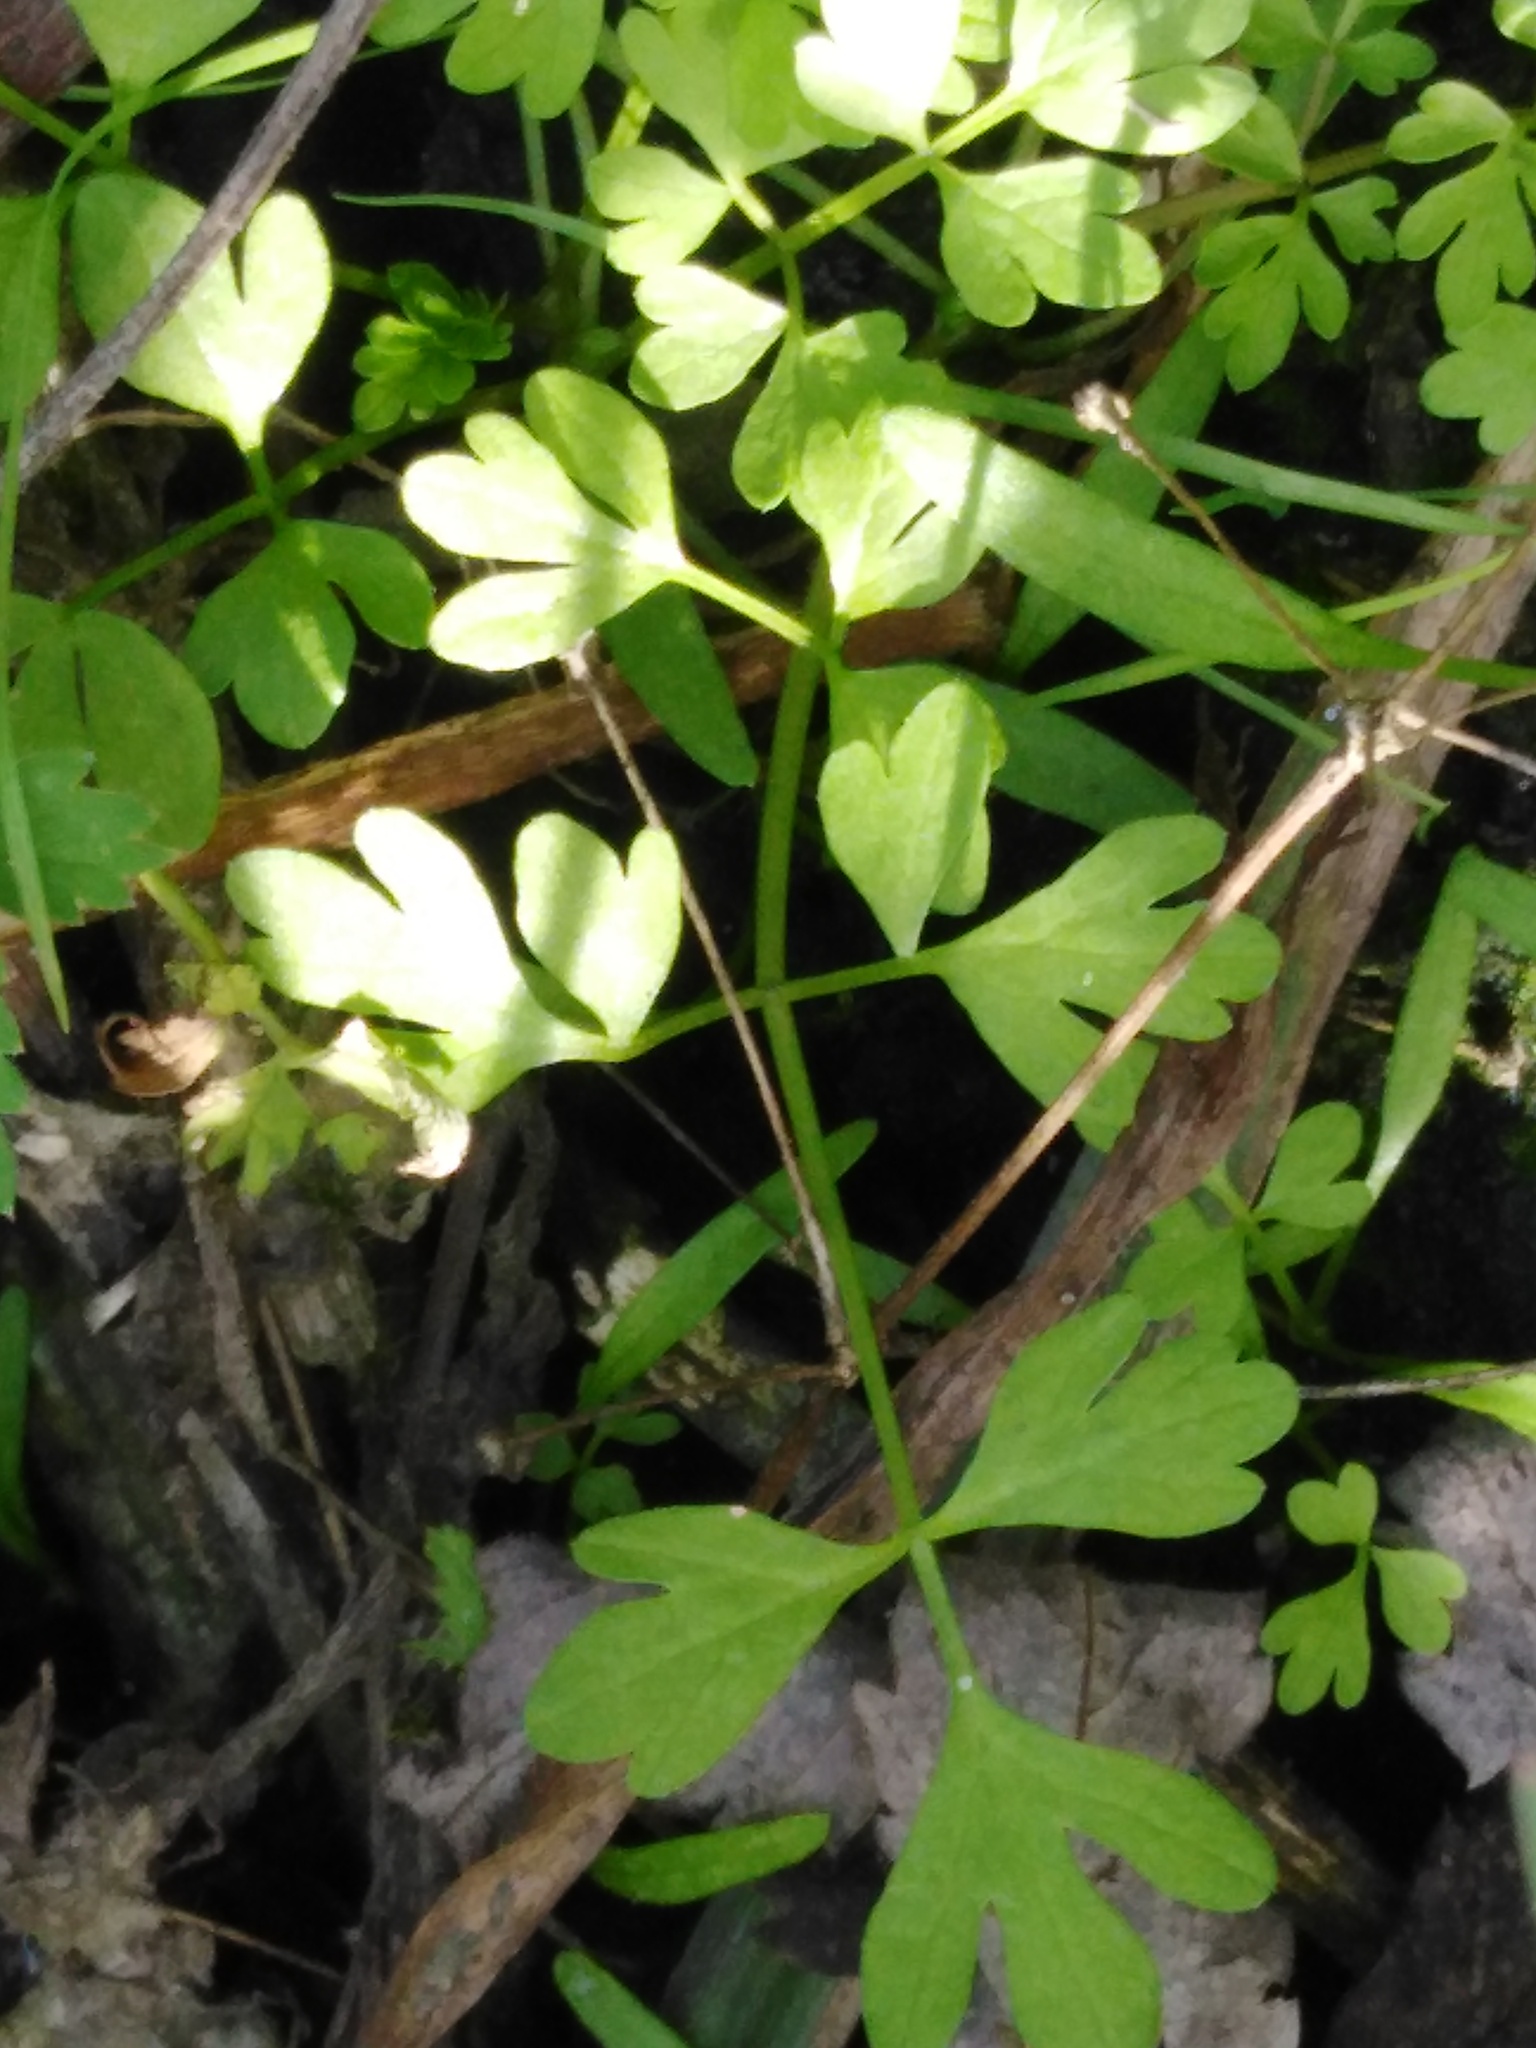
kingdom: Plantae
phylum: Tracheophyta
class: Magnoliopsida
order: Apiales
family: Apiaceae
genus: Oenanthe
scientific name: Oenanthe aquatica
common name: Fine-leaved water-dropwort
